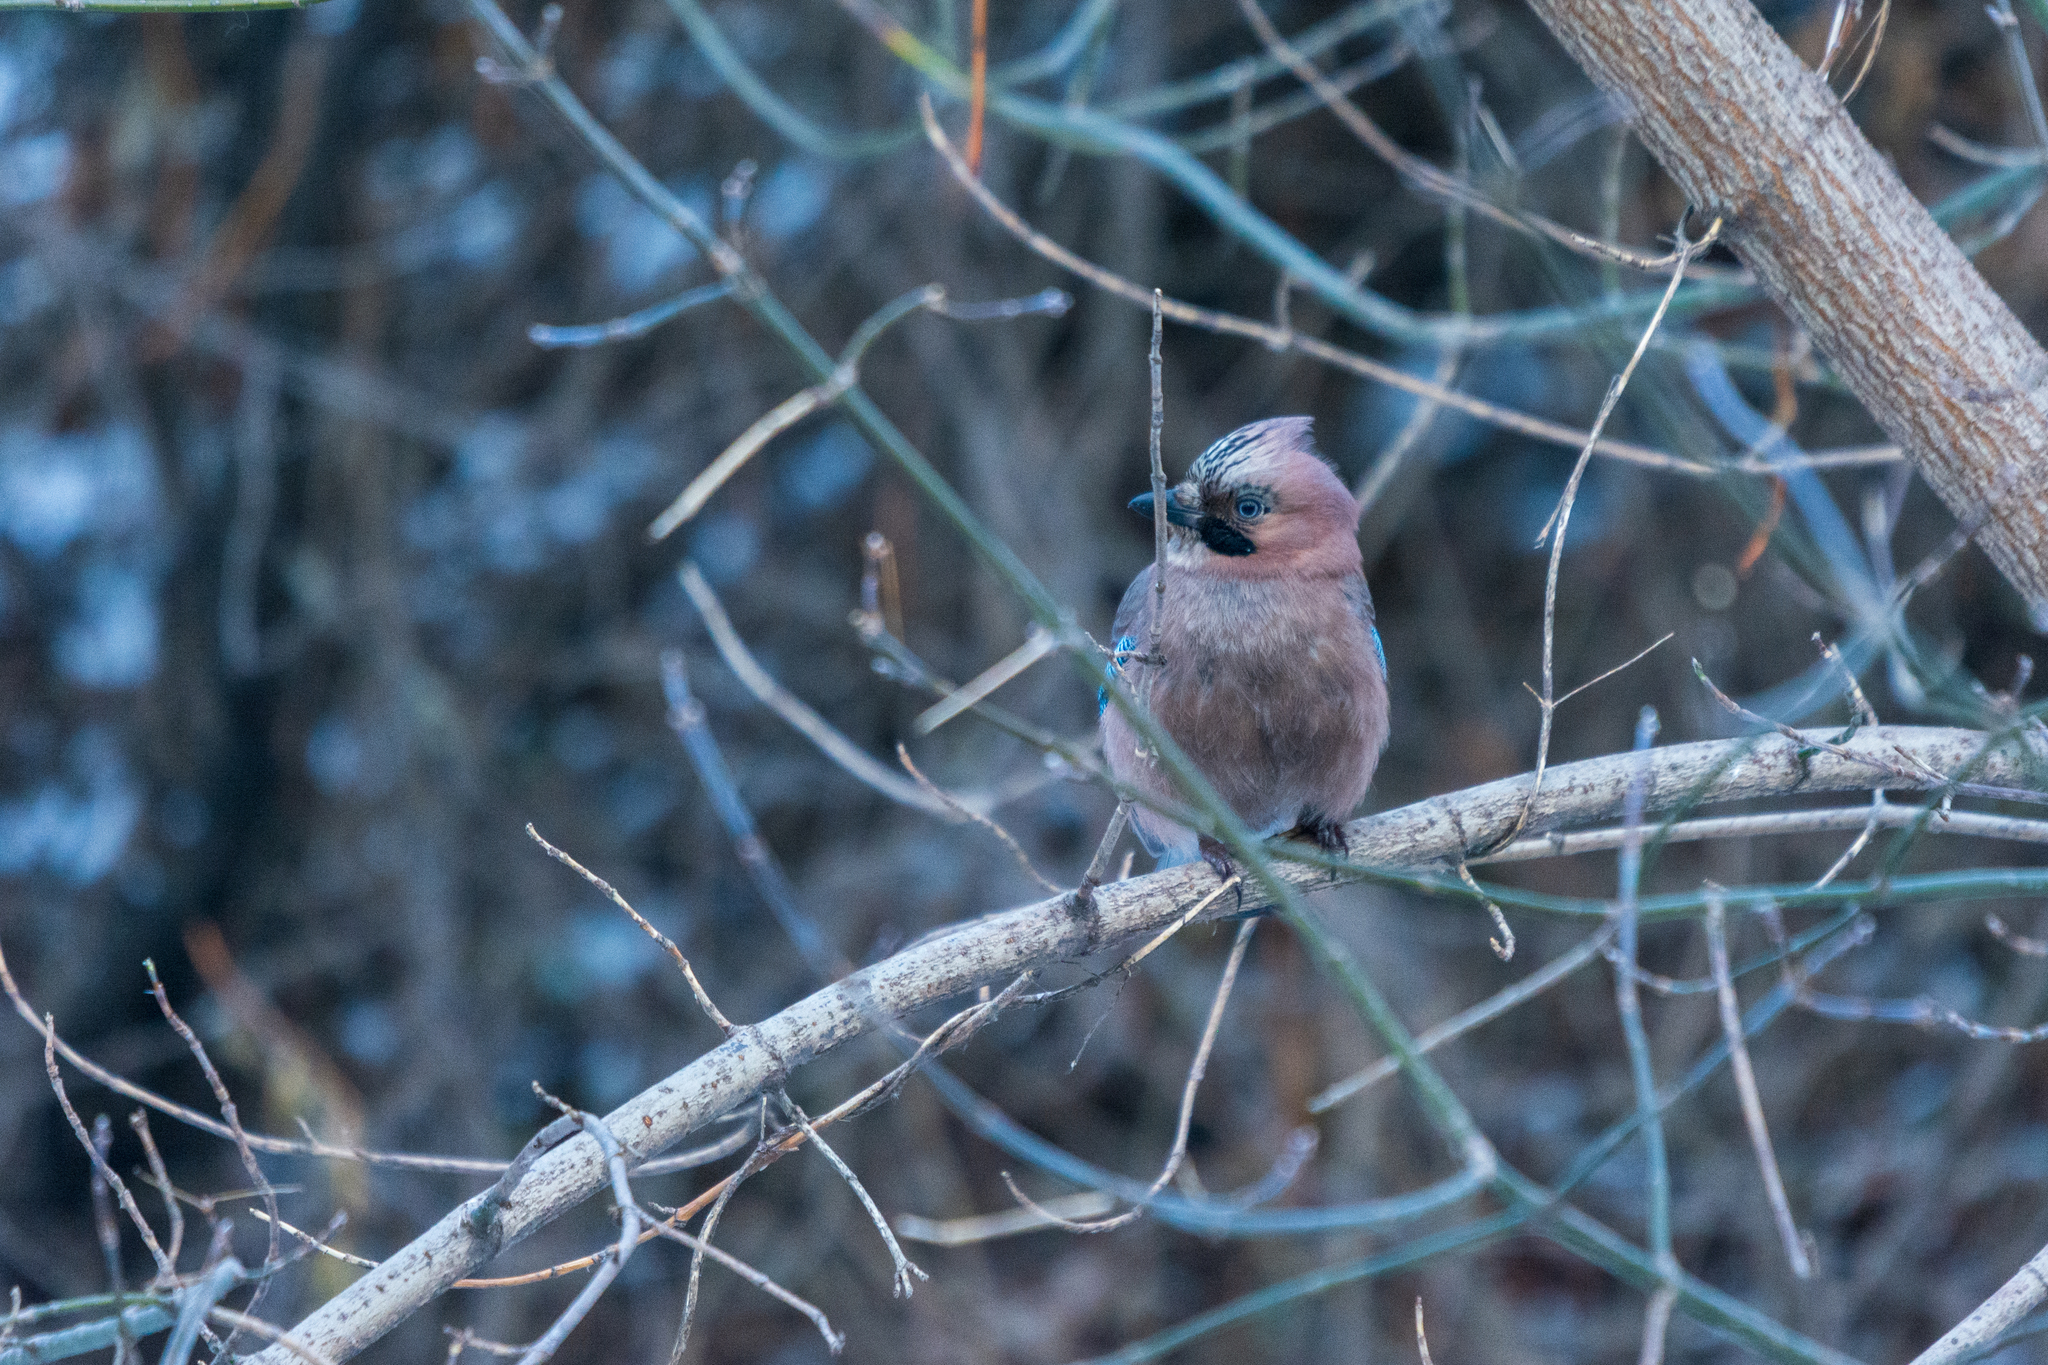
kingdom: Animalia
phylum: Chordata
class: Aves
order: Passeriformes
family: Corvidae
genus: Garrulus
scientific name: Garrulus glandarius
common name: Eurasian jay
